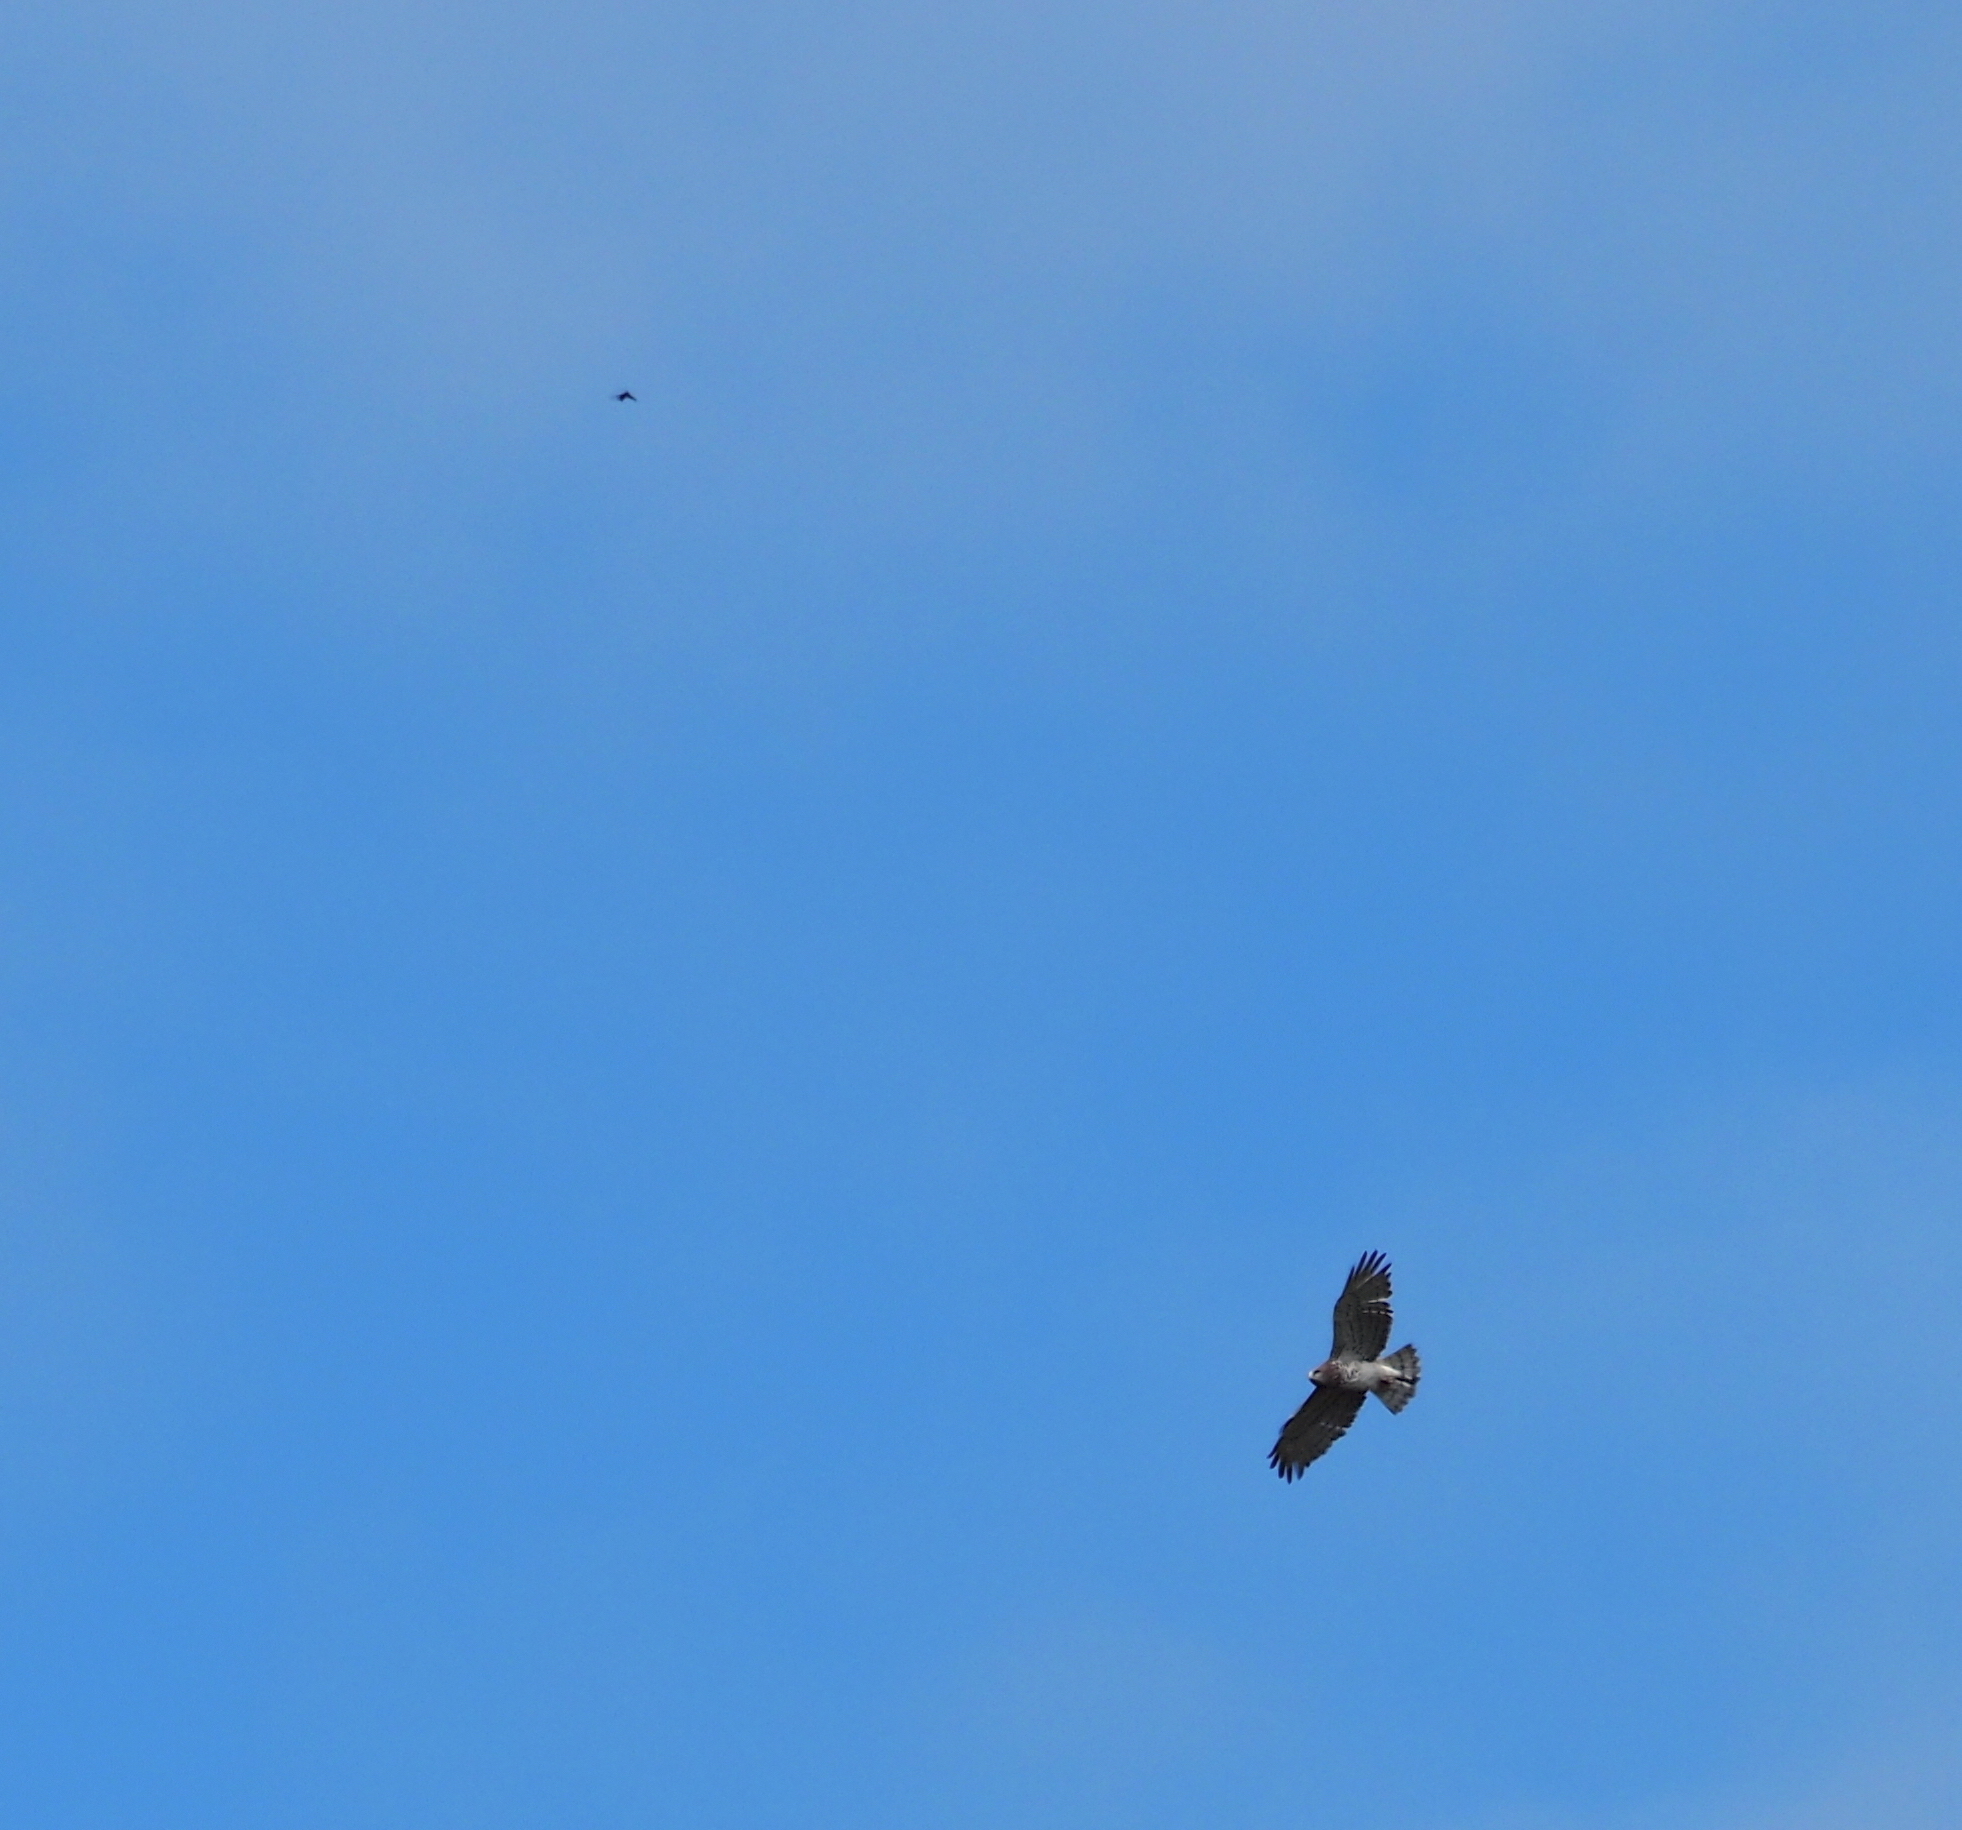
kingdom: Animalia
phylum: Chordata
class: Aves
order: Accipitriformes
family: Accipitridae
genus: Circaetus
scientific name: Circaetus gallicus
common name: Short-toed snake eagle
